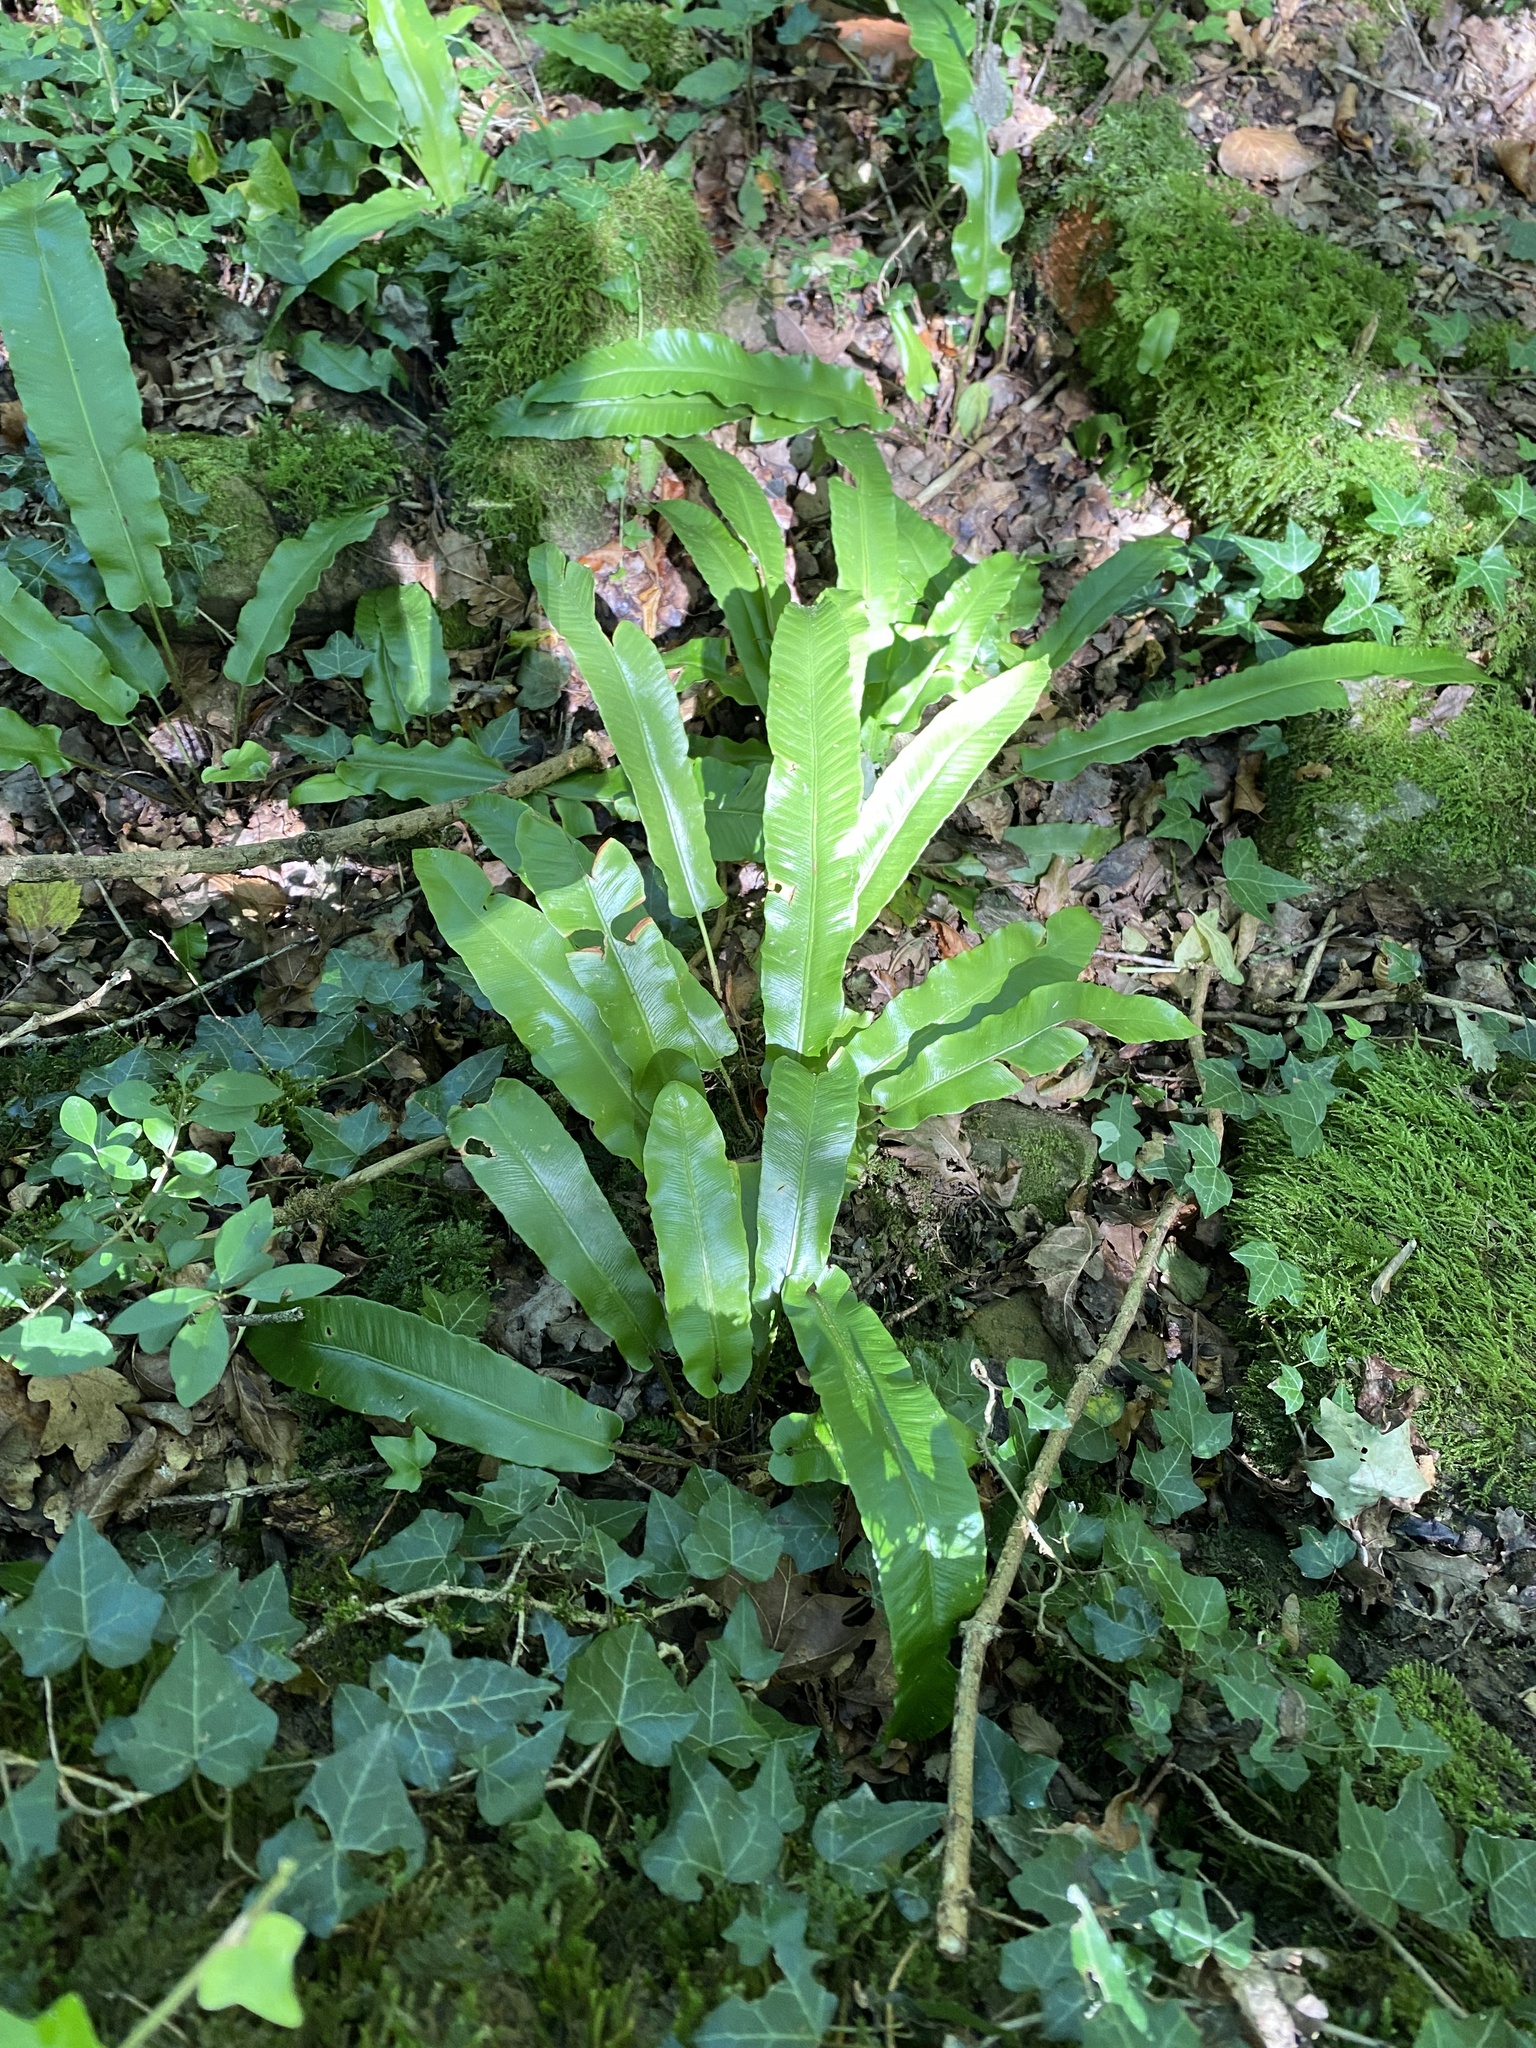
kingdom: Plantae
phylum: Tracheophyta
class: Polypodiopsida
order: Polypodiales
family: Aspleniaceae
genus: Asplenium
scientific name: Asplenium scolopendrium
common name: Hart's-tongue fern
